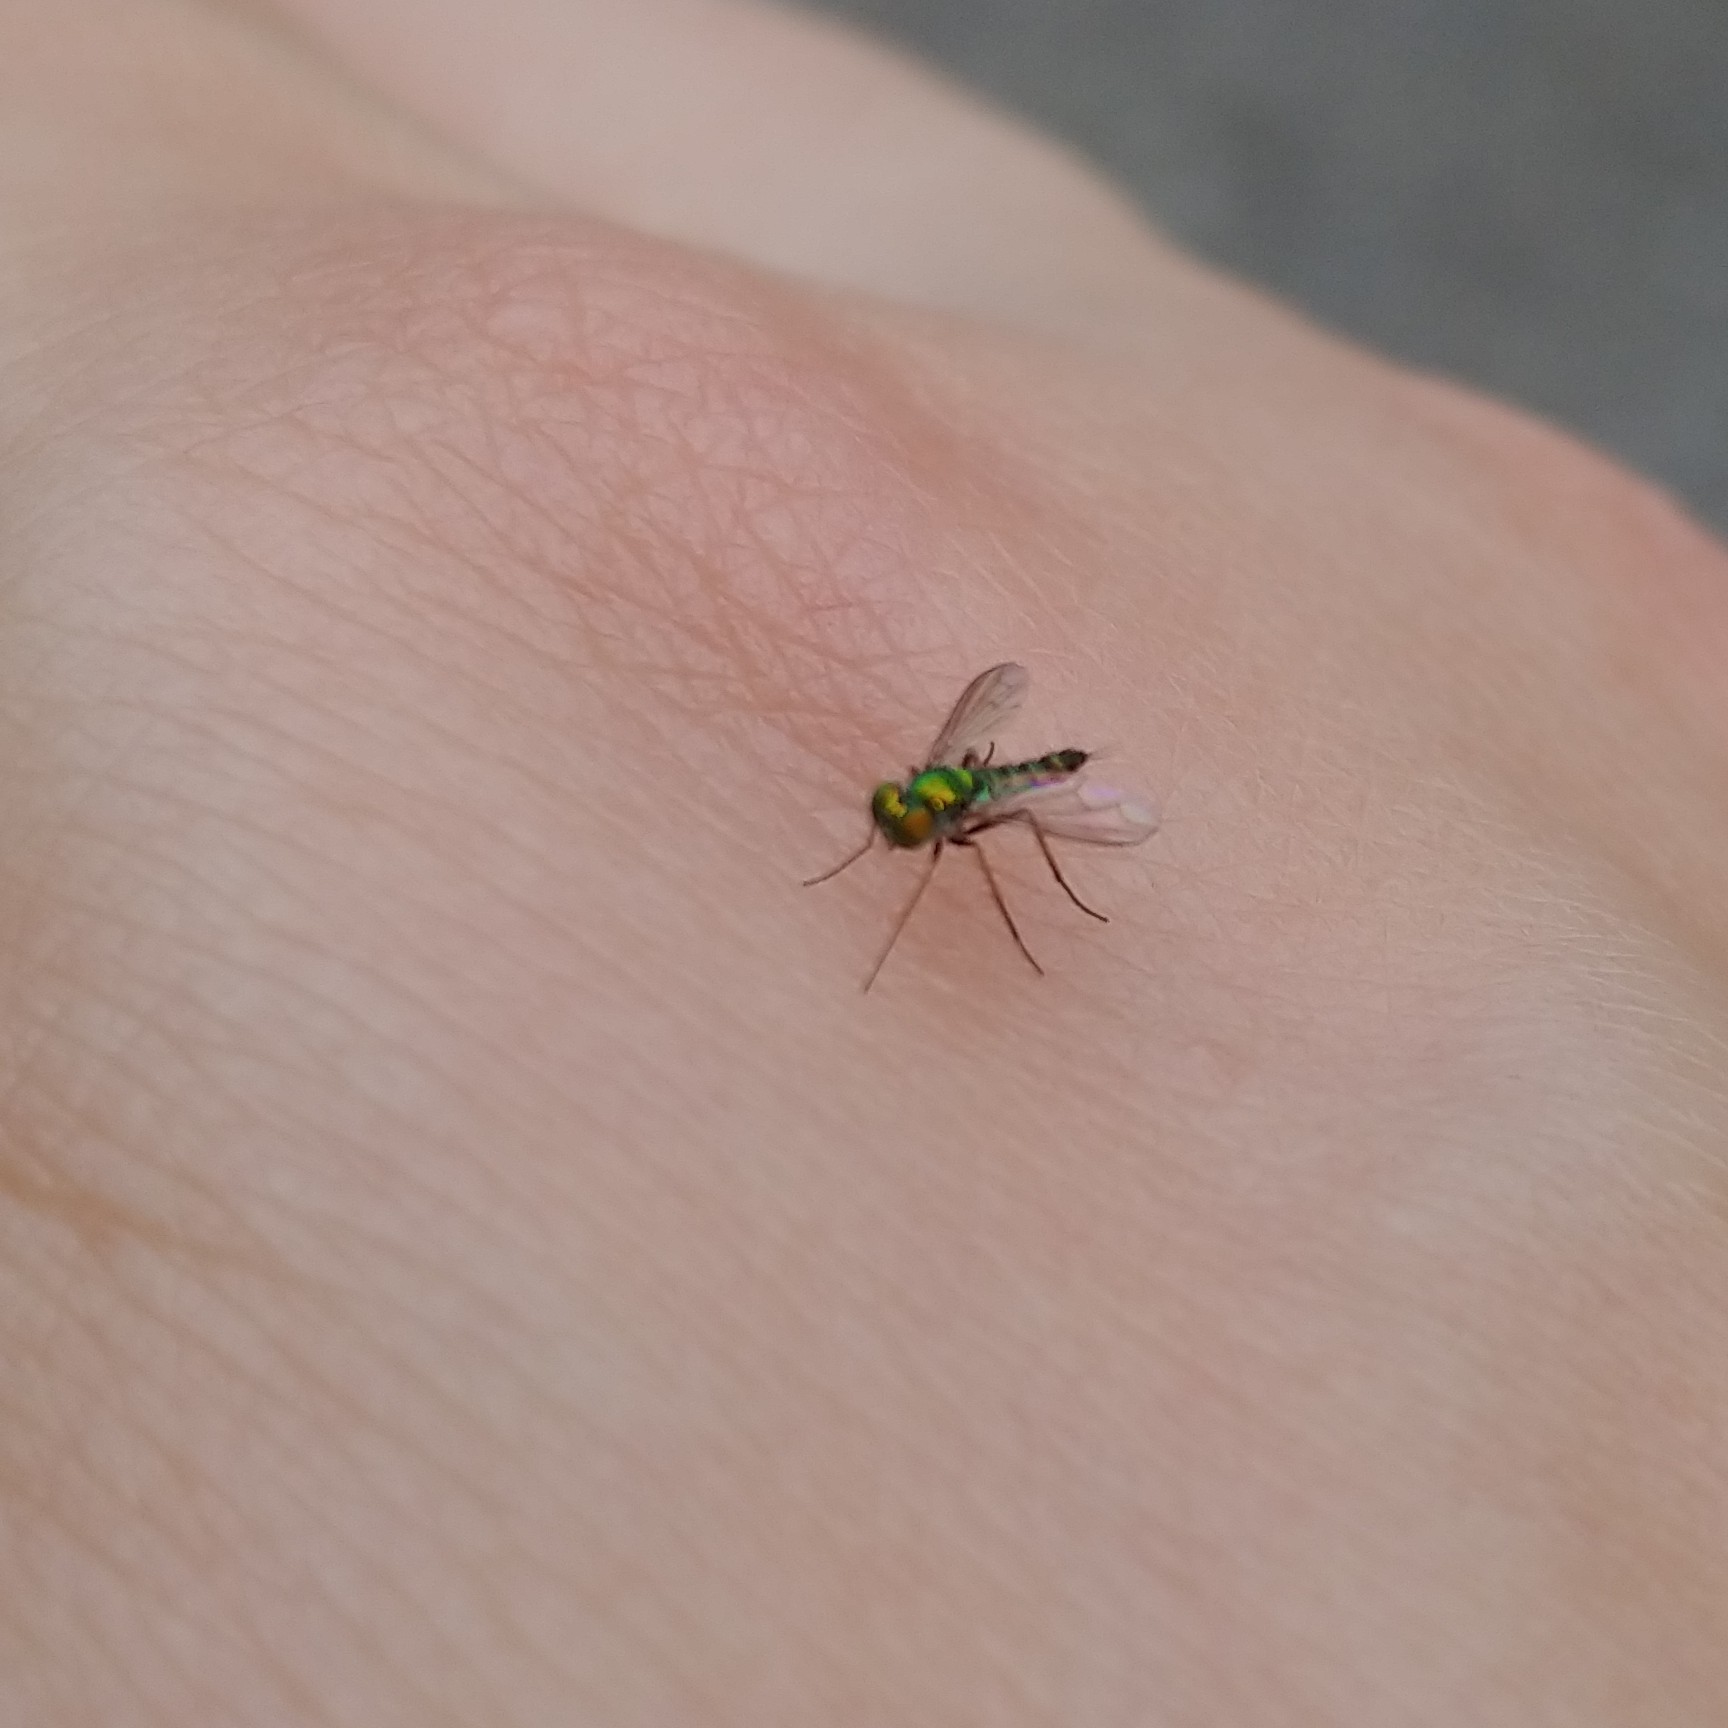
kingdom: Animalia
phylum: Arthropoda
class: Insecta
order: Diptera
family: Dolichopodidae
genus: Condylostylus
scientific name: Condylostylus caudatus
